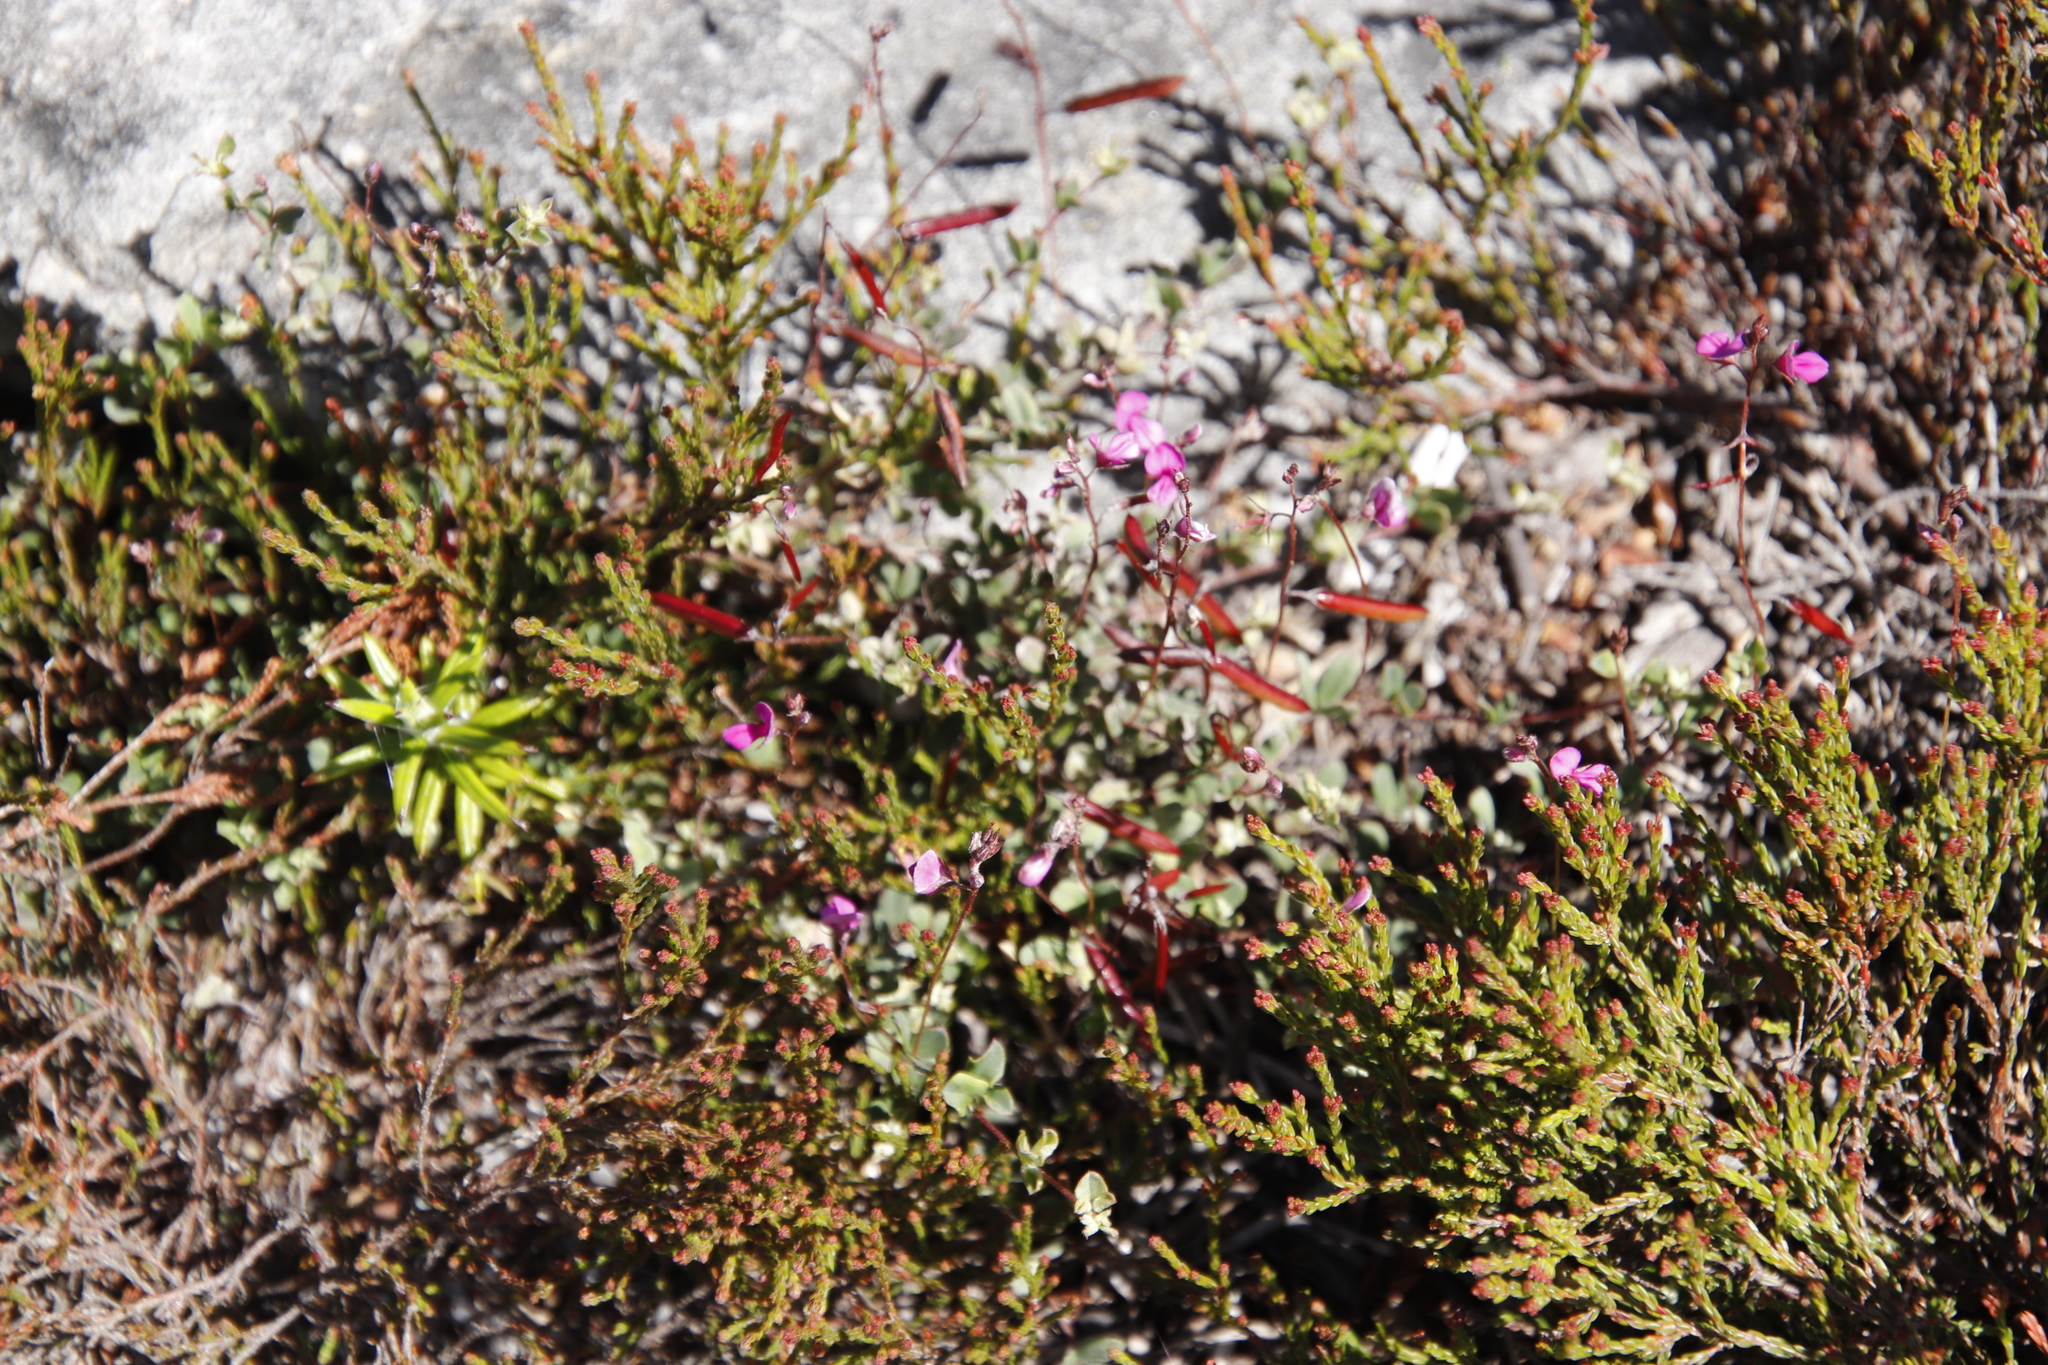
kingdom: Plantae
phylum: Tracheophyta
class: Magnoliopsida
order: Fabales
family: Fabaceae
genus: Indigofera
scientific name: Indigofera sarmentosa
